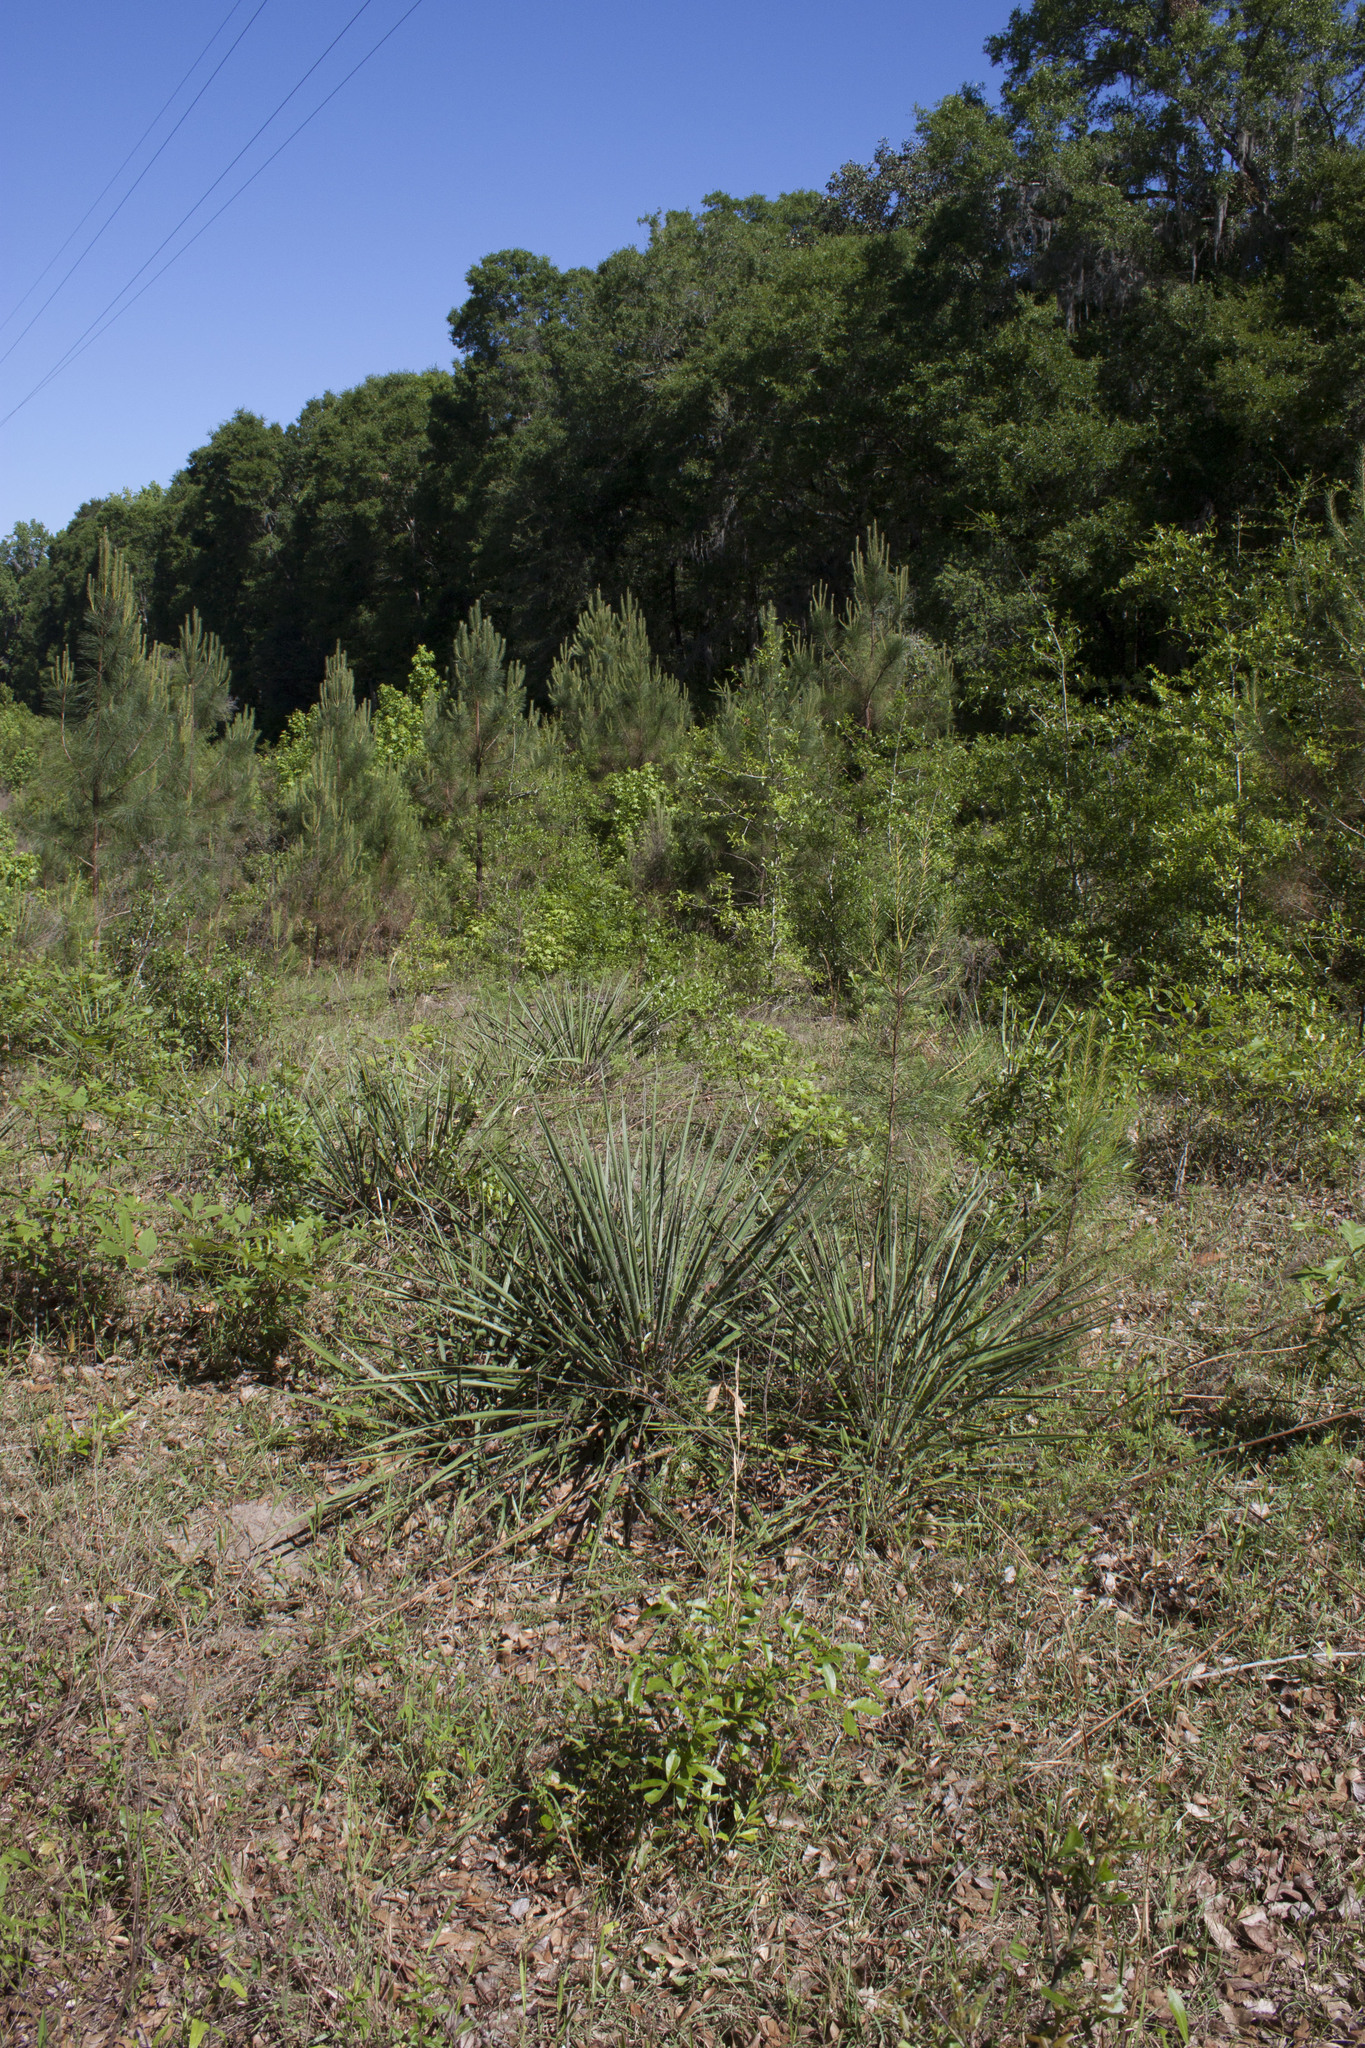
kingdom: Plantae
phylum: Tracheophyta
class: Liliopsida
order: Asparagales
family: Asparagaceae
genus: Yucca
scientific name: Yucca filamentosa
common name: Adam's-needle
